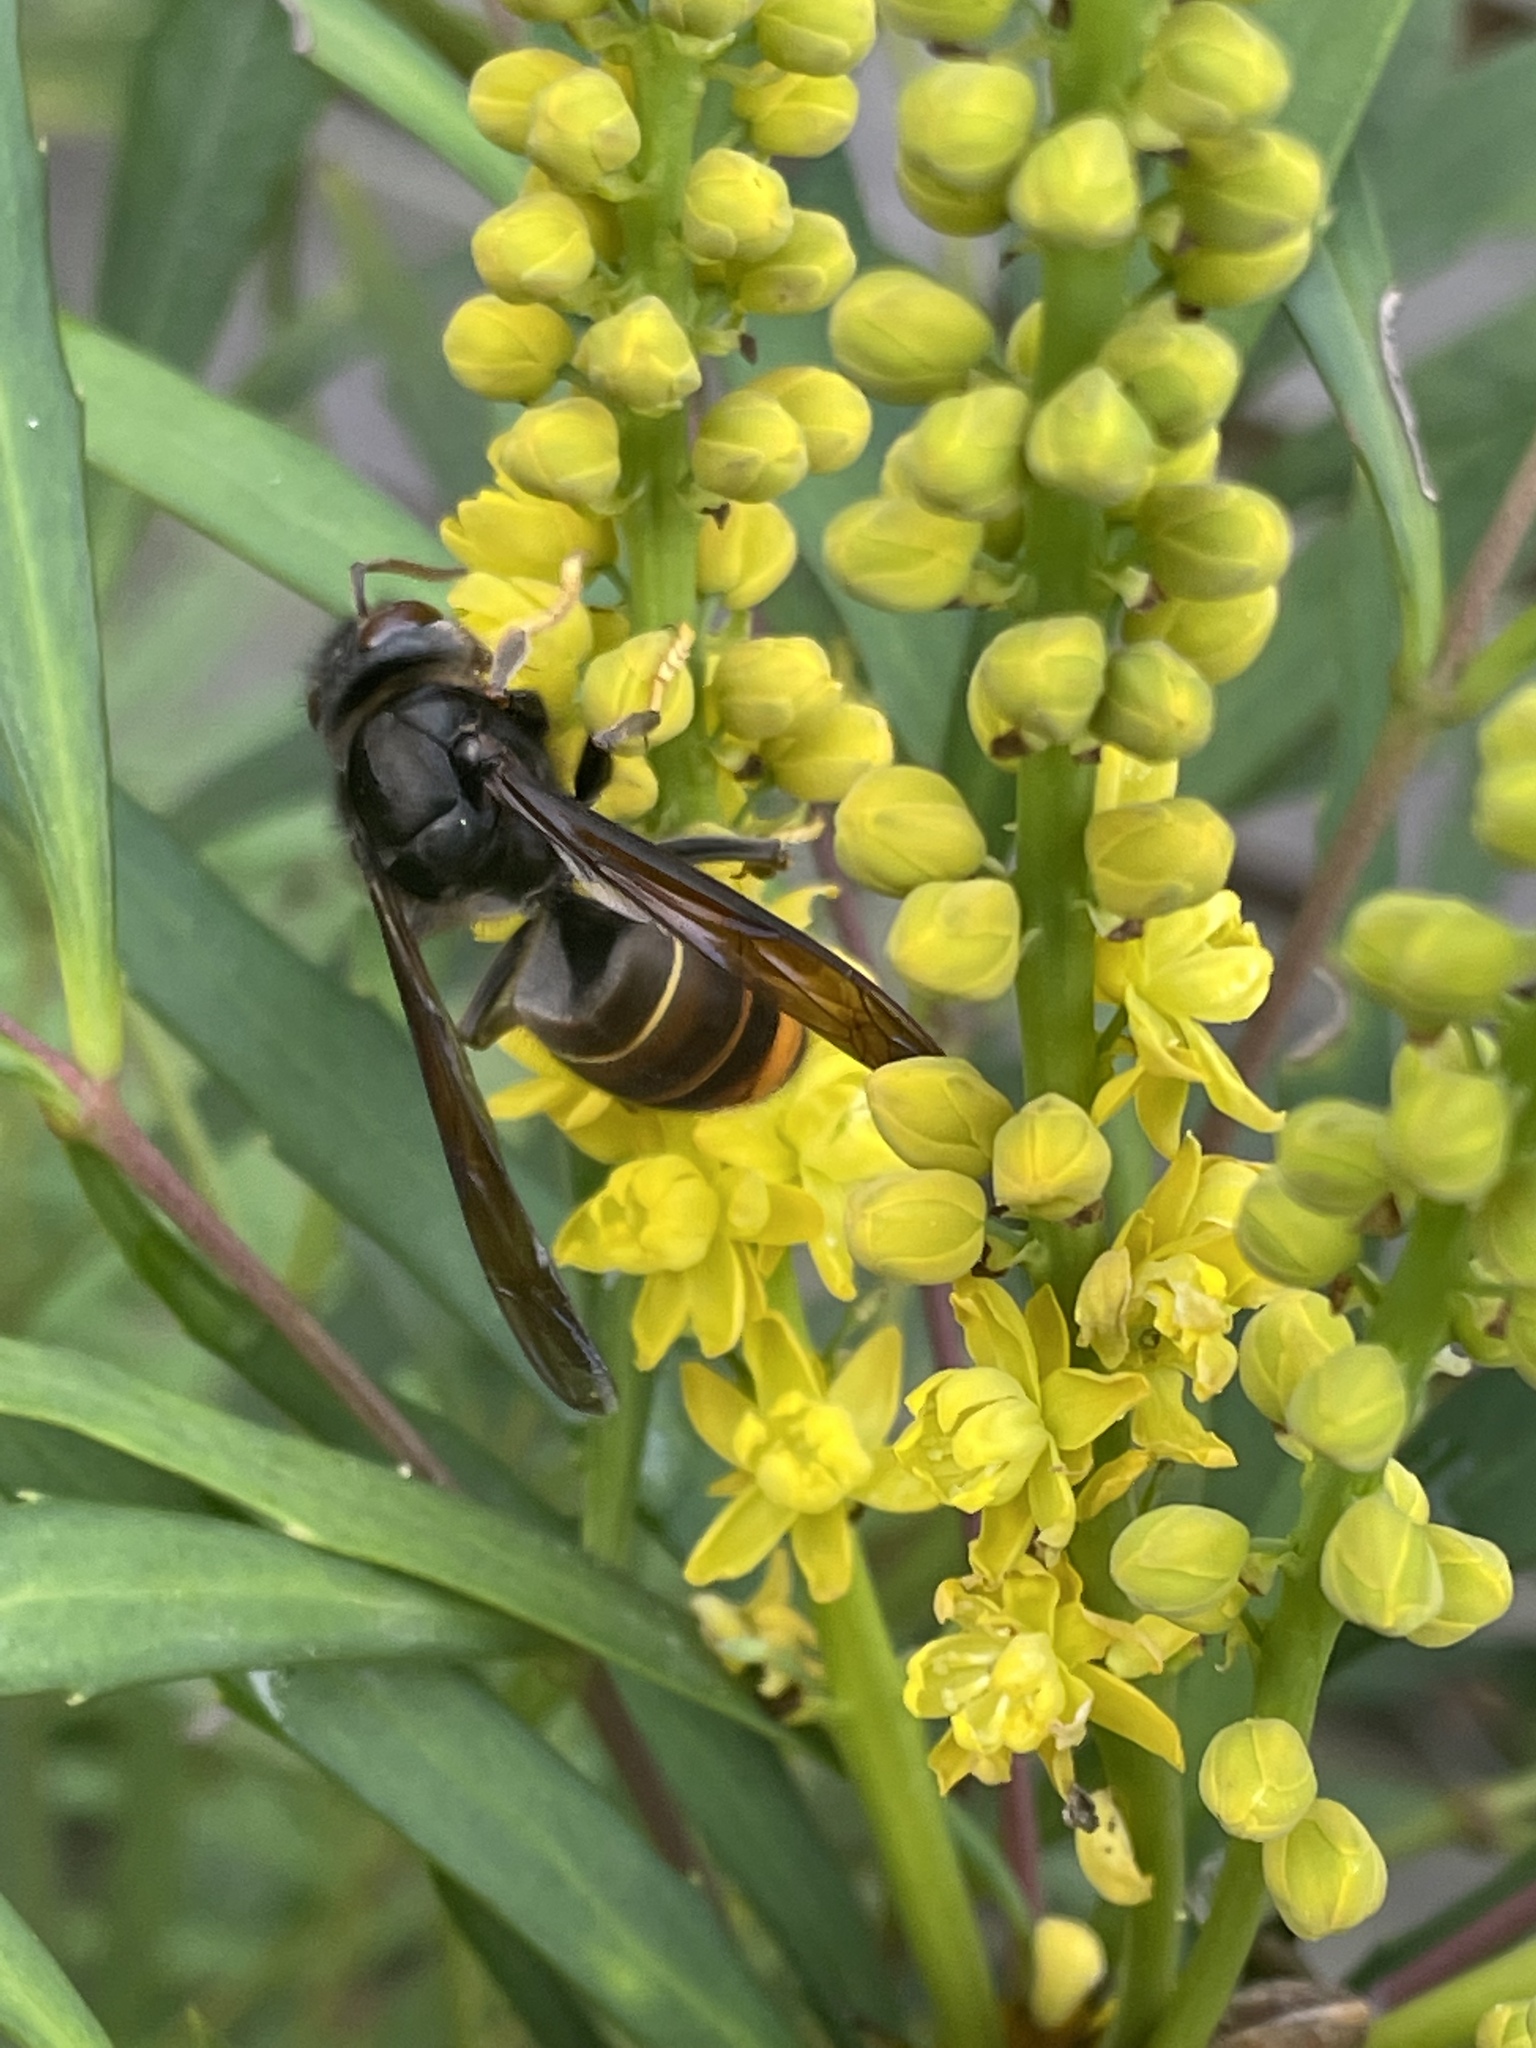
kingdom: Animalia
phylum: Arthropoda
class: Insecta
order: Hymenoptera
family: Vespidae
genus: Vespa
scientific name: Vespa velutina
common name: Asian hornet
